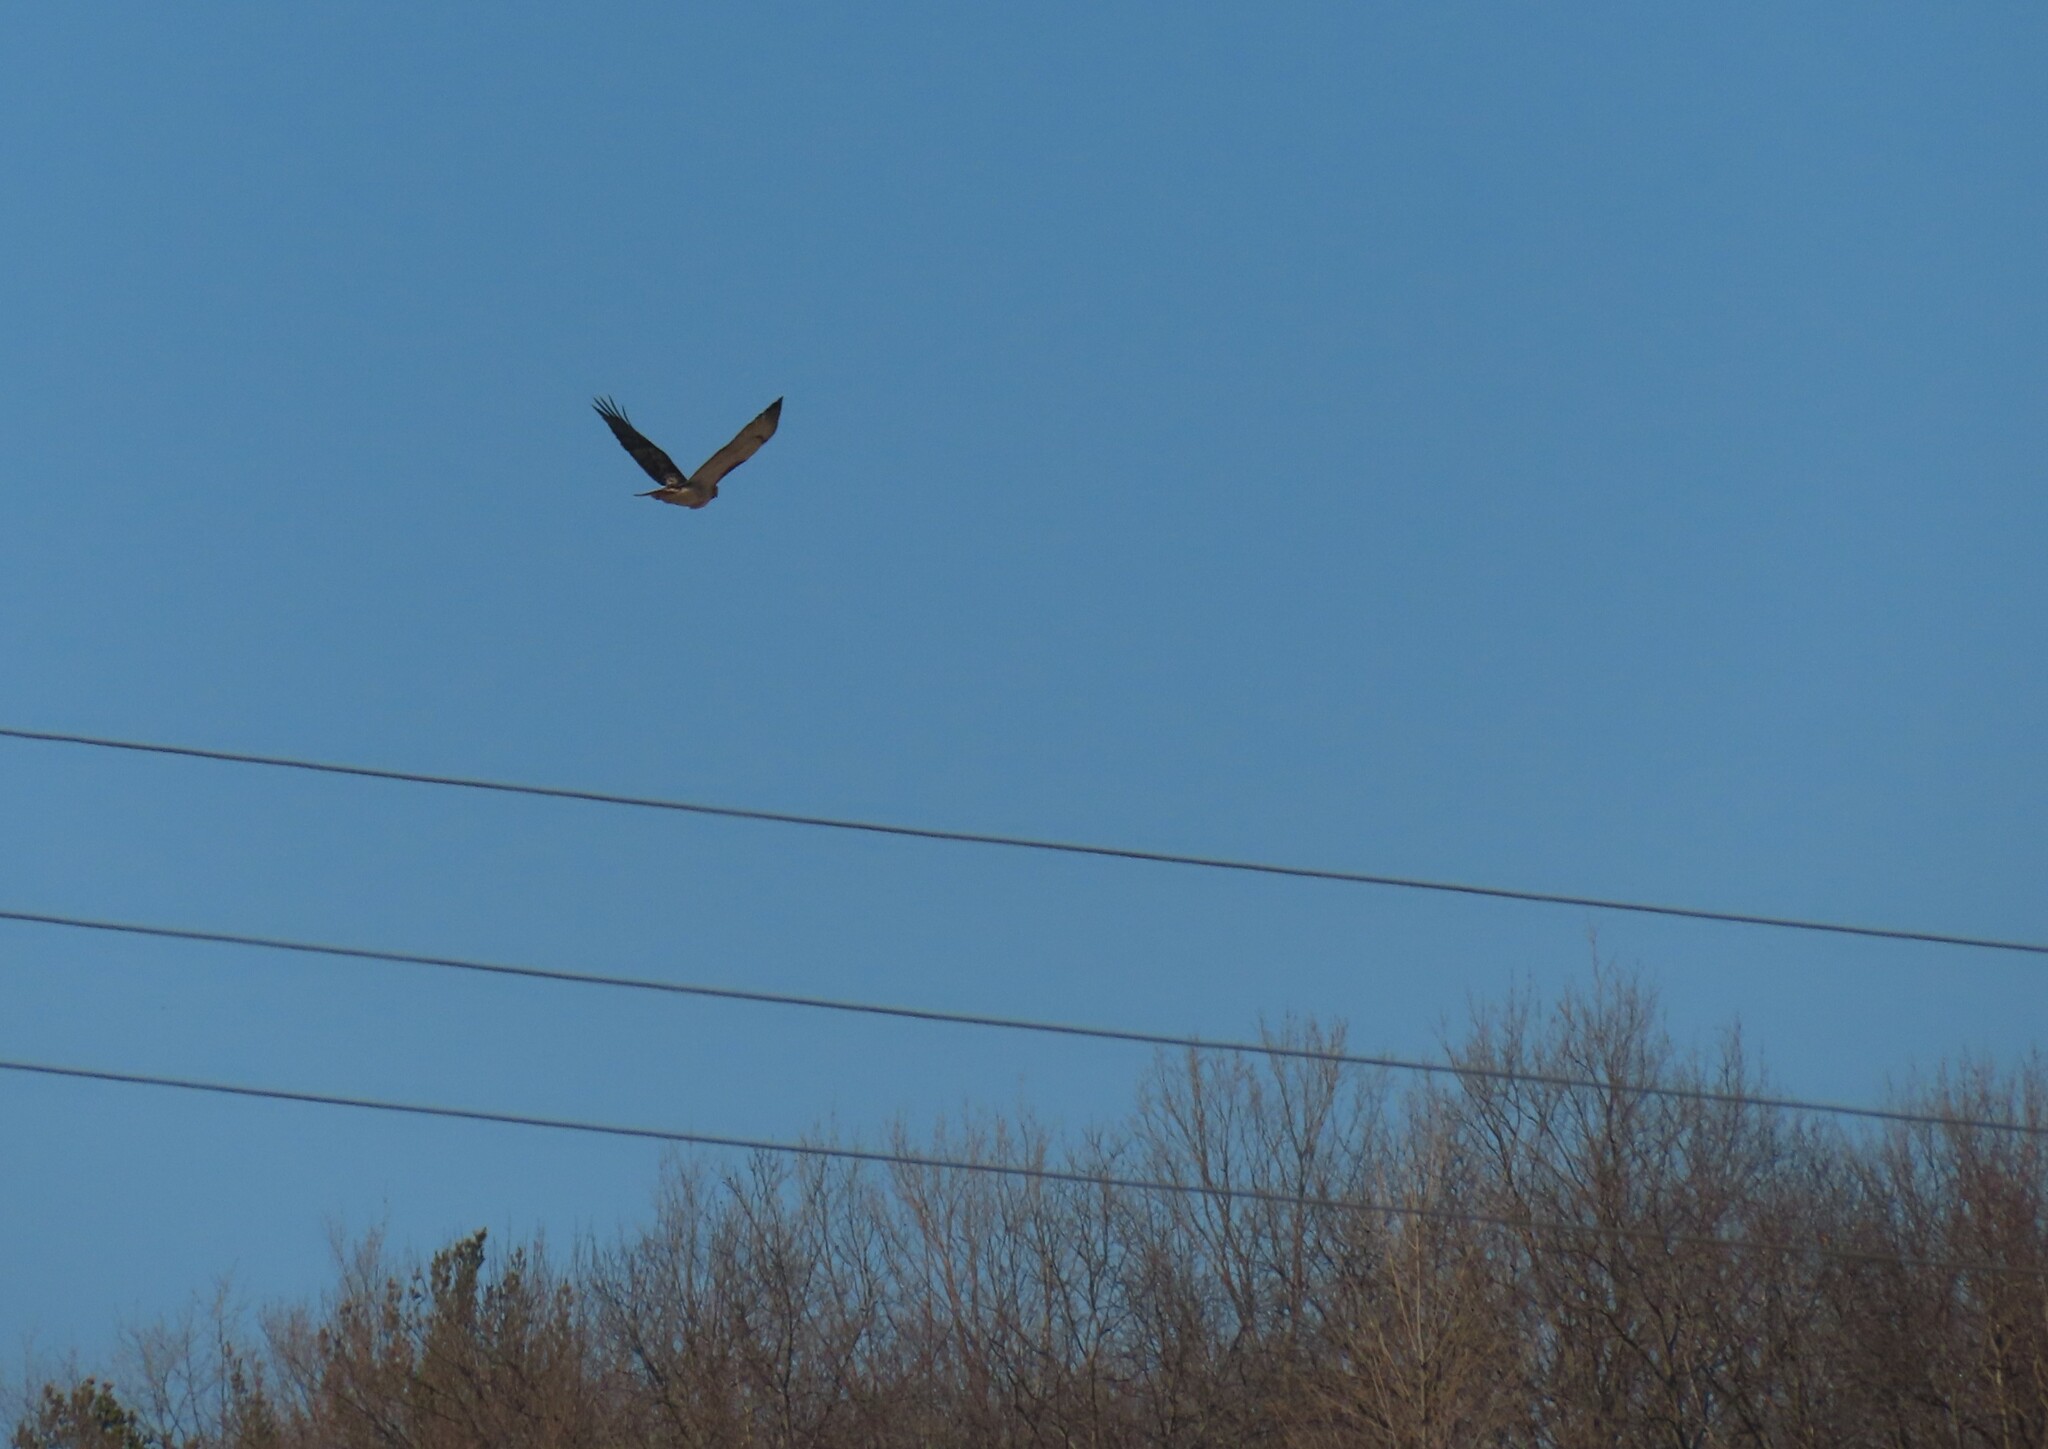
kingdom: Animalia
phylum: Chordata
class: Aves
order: Accipitriformes
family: Accipitridae
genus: Buteo
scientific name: Buteo jamaicensis
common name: Red-tailed hawk
